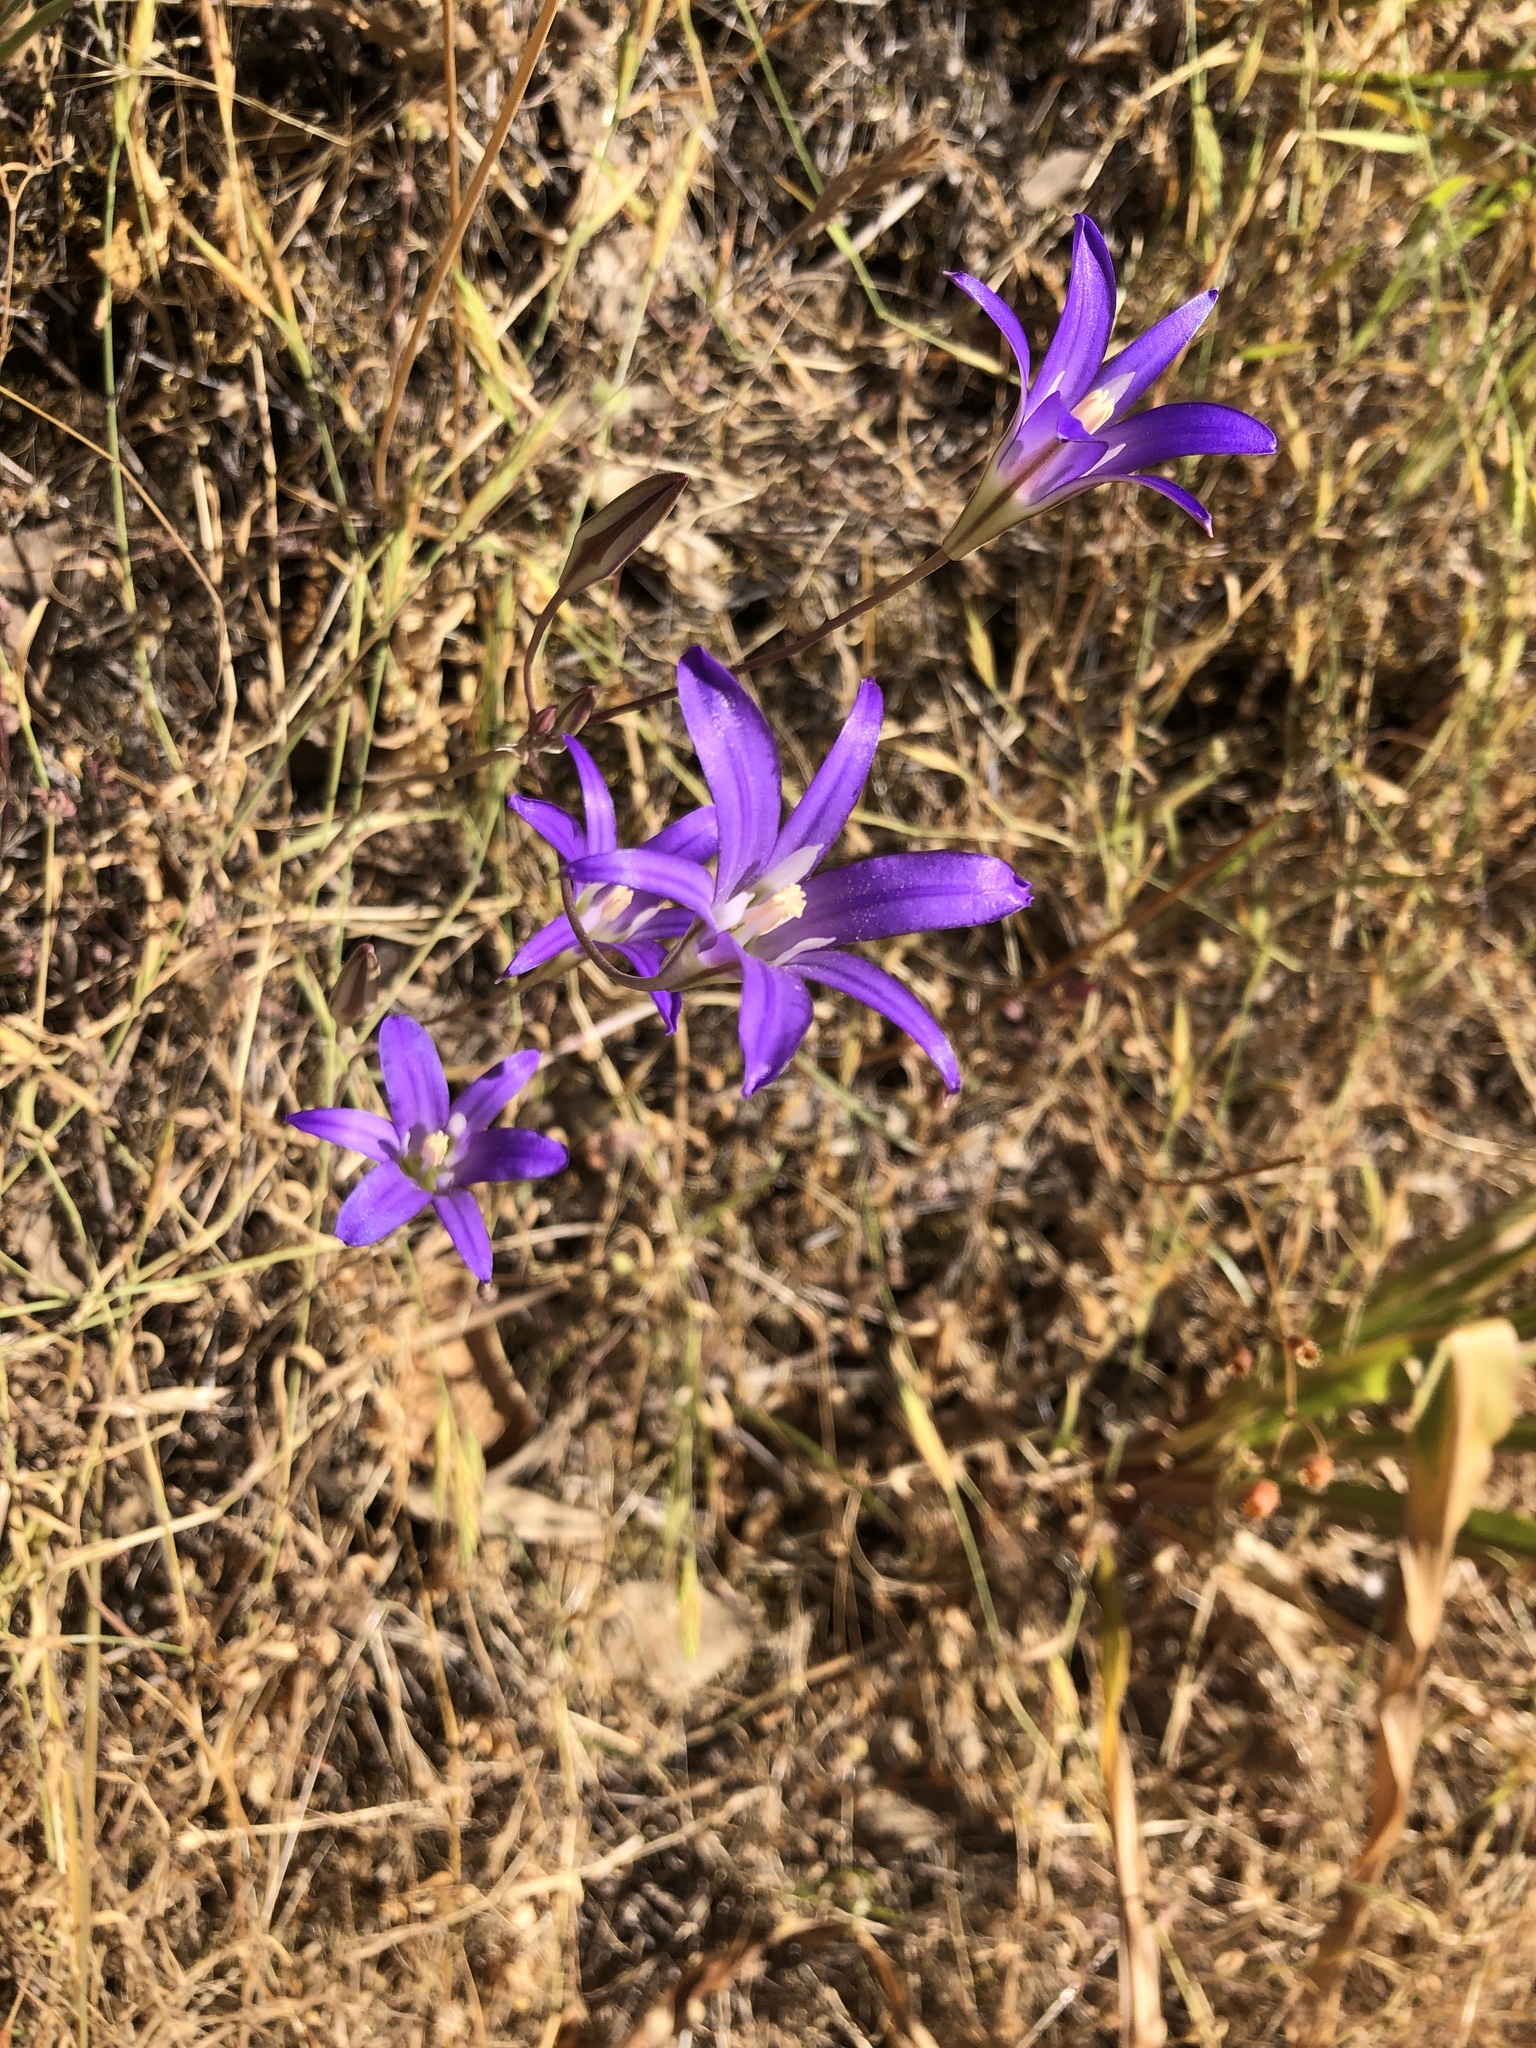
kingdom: Plantae
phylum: Tracheophyta
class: Liliopsida
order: Asparagales
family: Asparagaceae
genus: Brodiaea
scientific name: Brodiaea elegans
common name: Elegant cluster-lily
